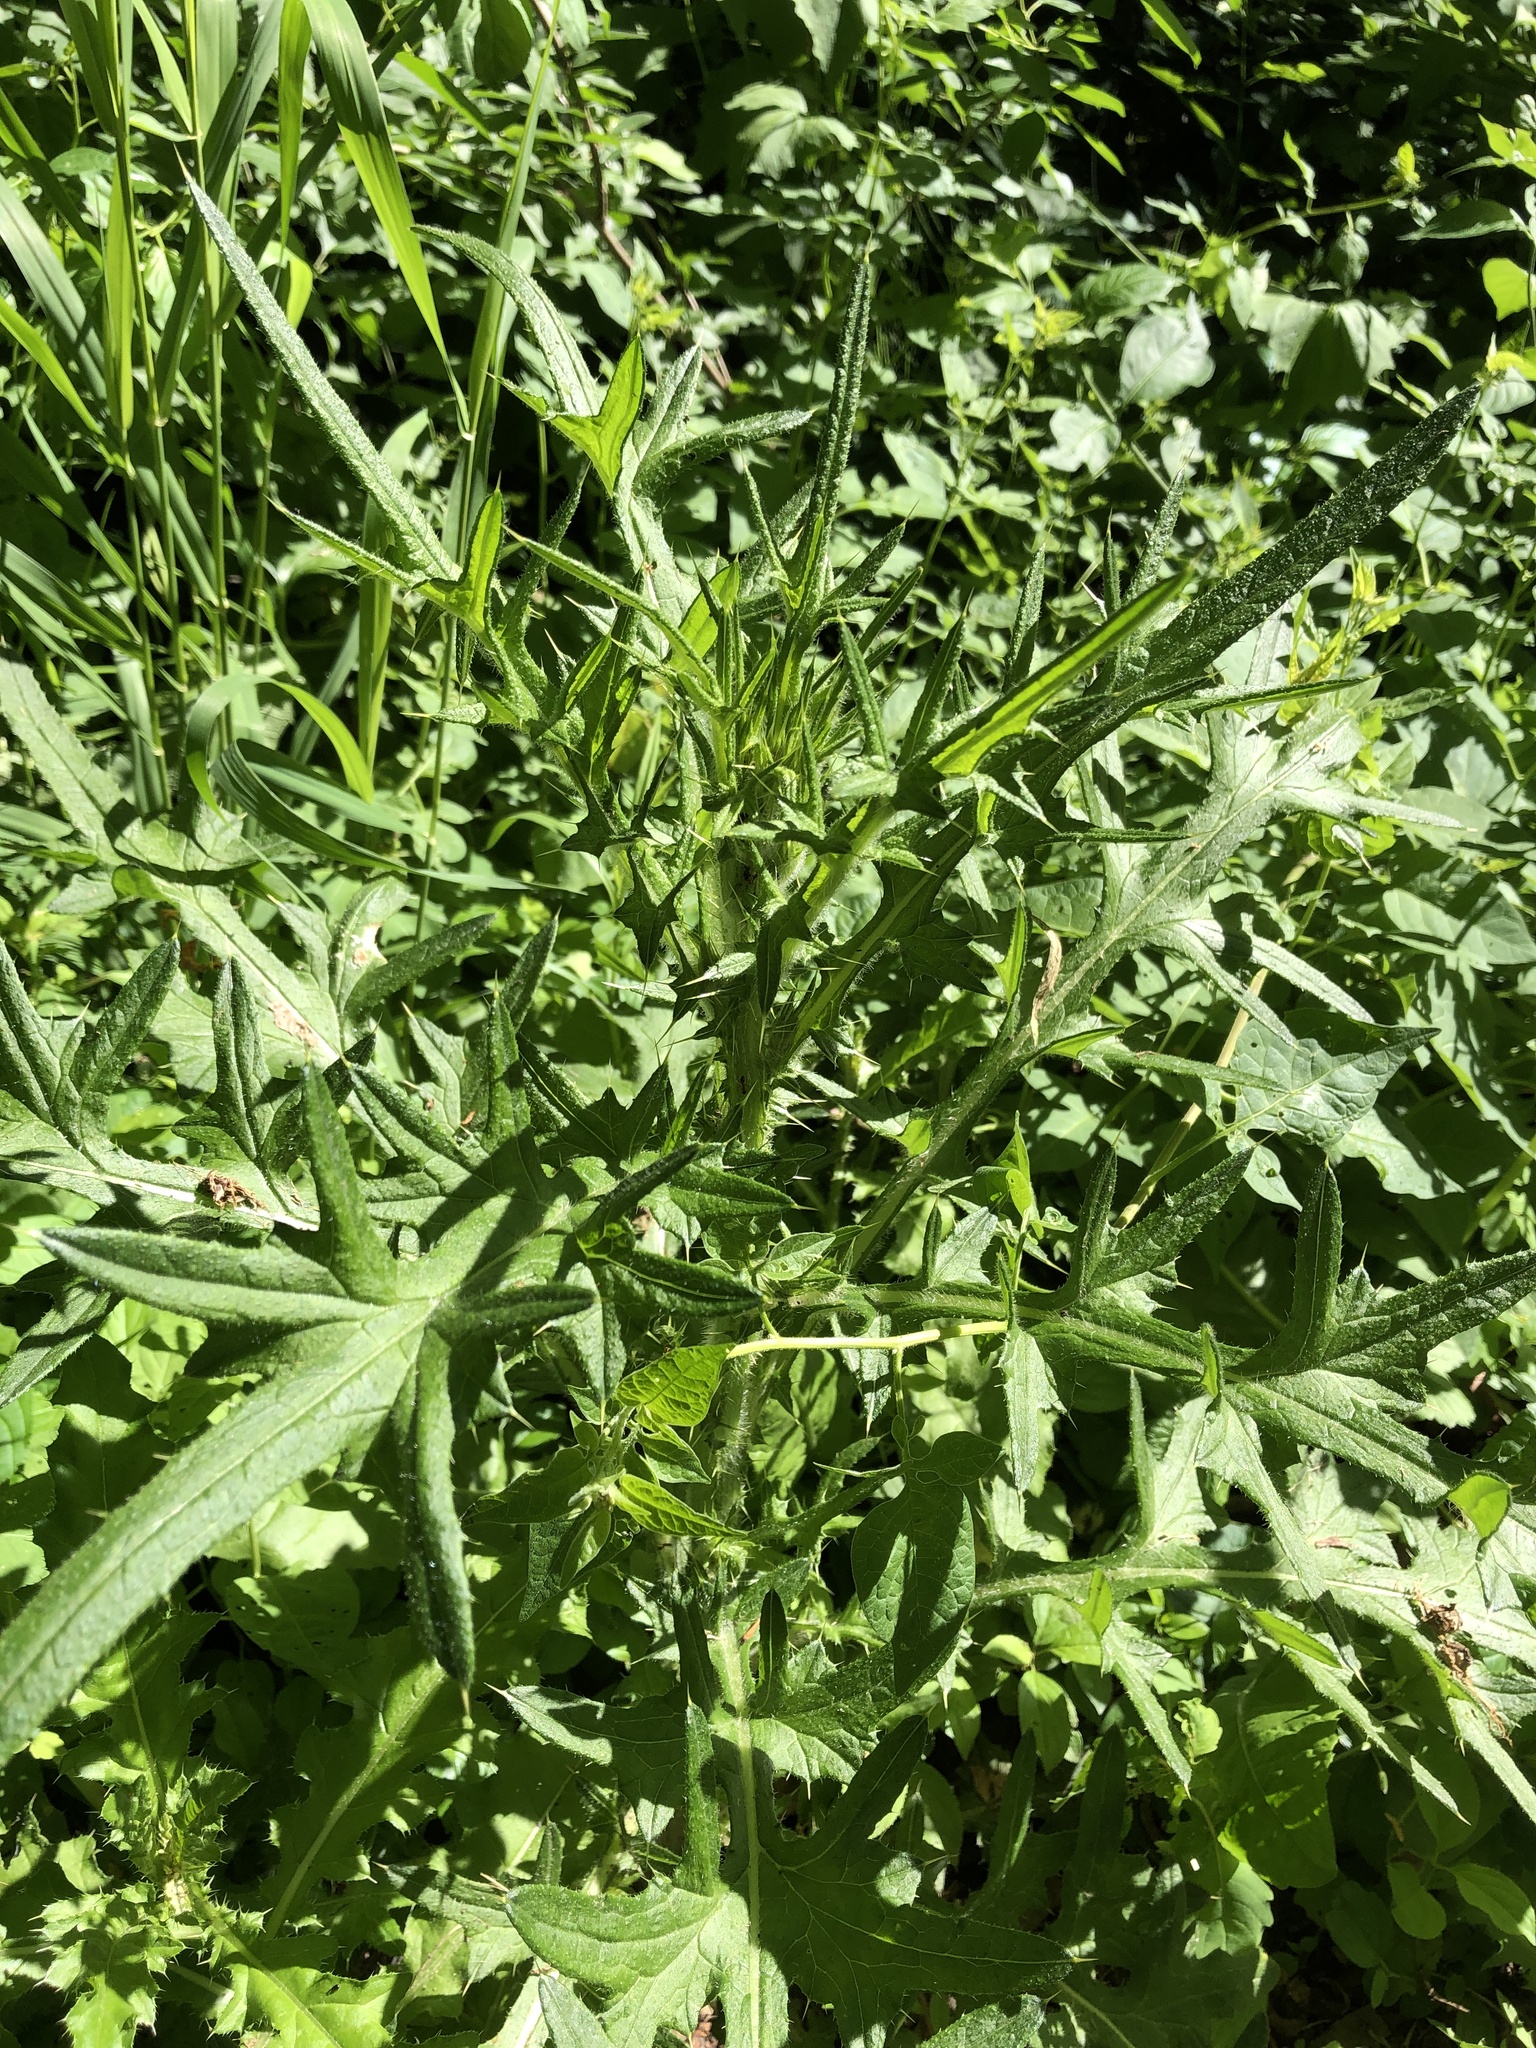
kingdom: Plantae
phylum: Tracheophyta
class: Magnoliopsida
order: Asterales
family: Asteraceae
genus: Cirsium
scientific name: Cirsium vulgare
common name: Bull thistle
